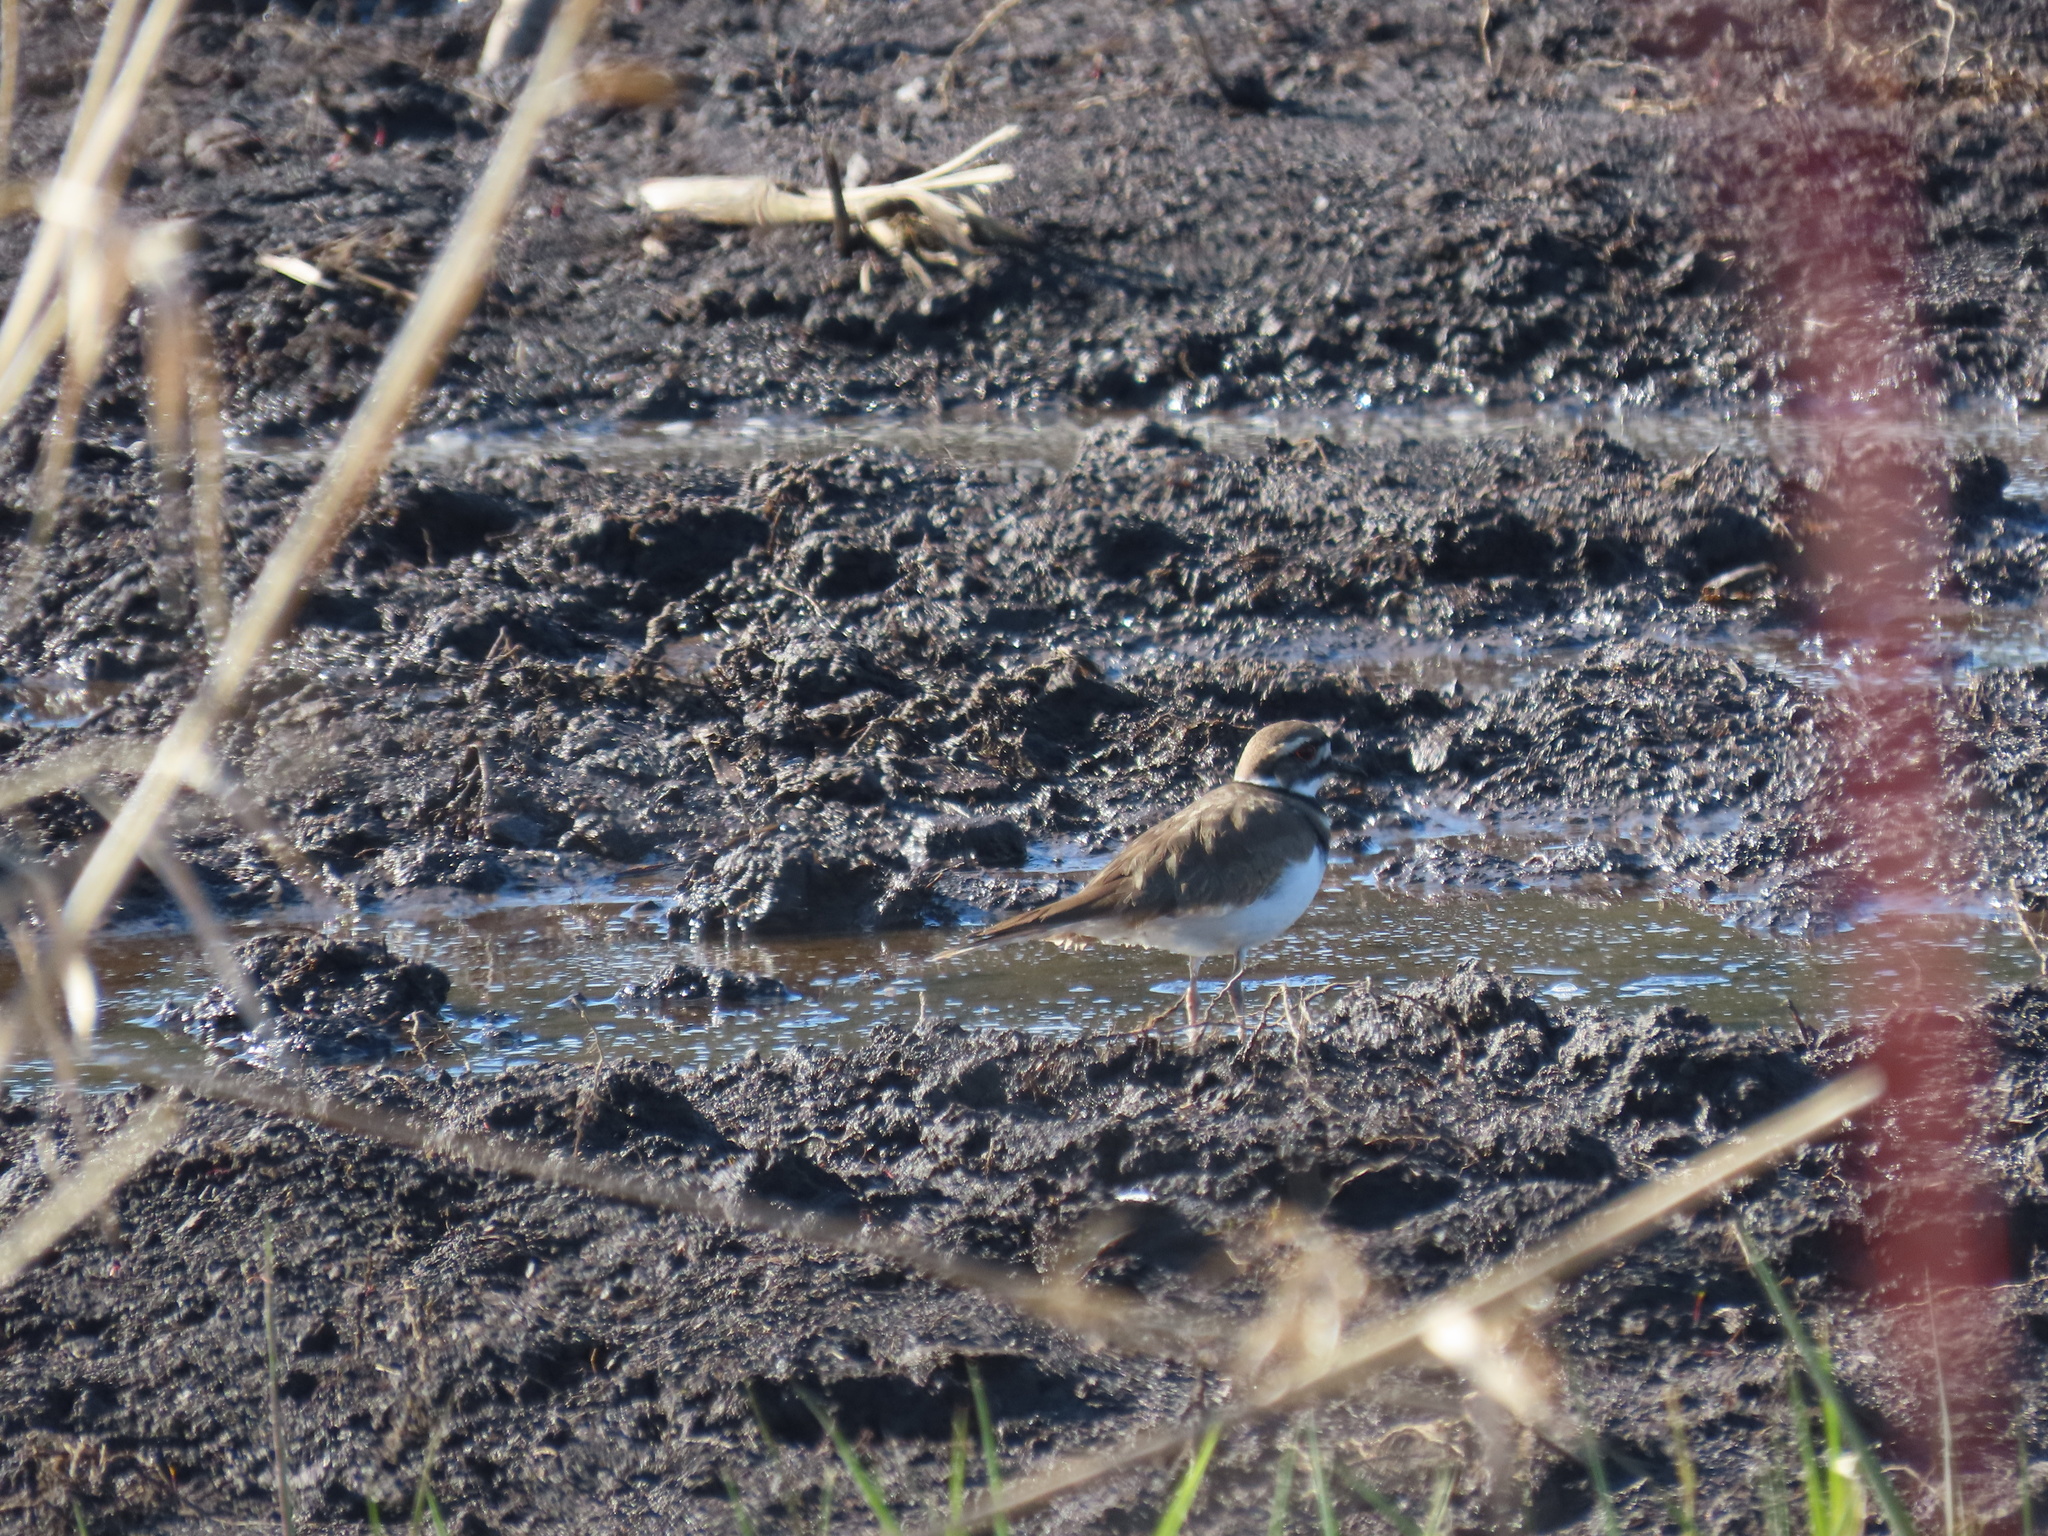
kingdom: Animalia
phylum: Chordata
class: Aves
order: Charadriiformes
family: Charadriidae
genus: Charadrius
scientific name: Charadrius vociferus
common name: Killdeer
